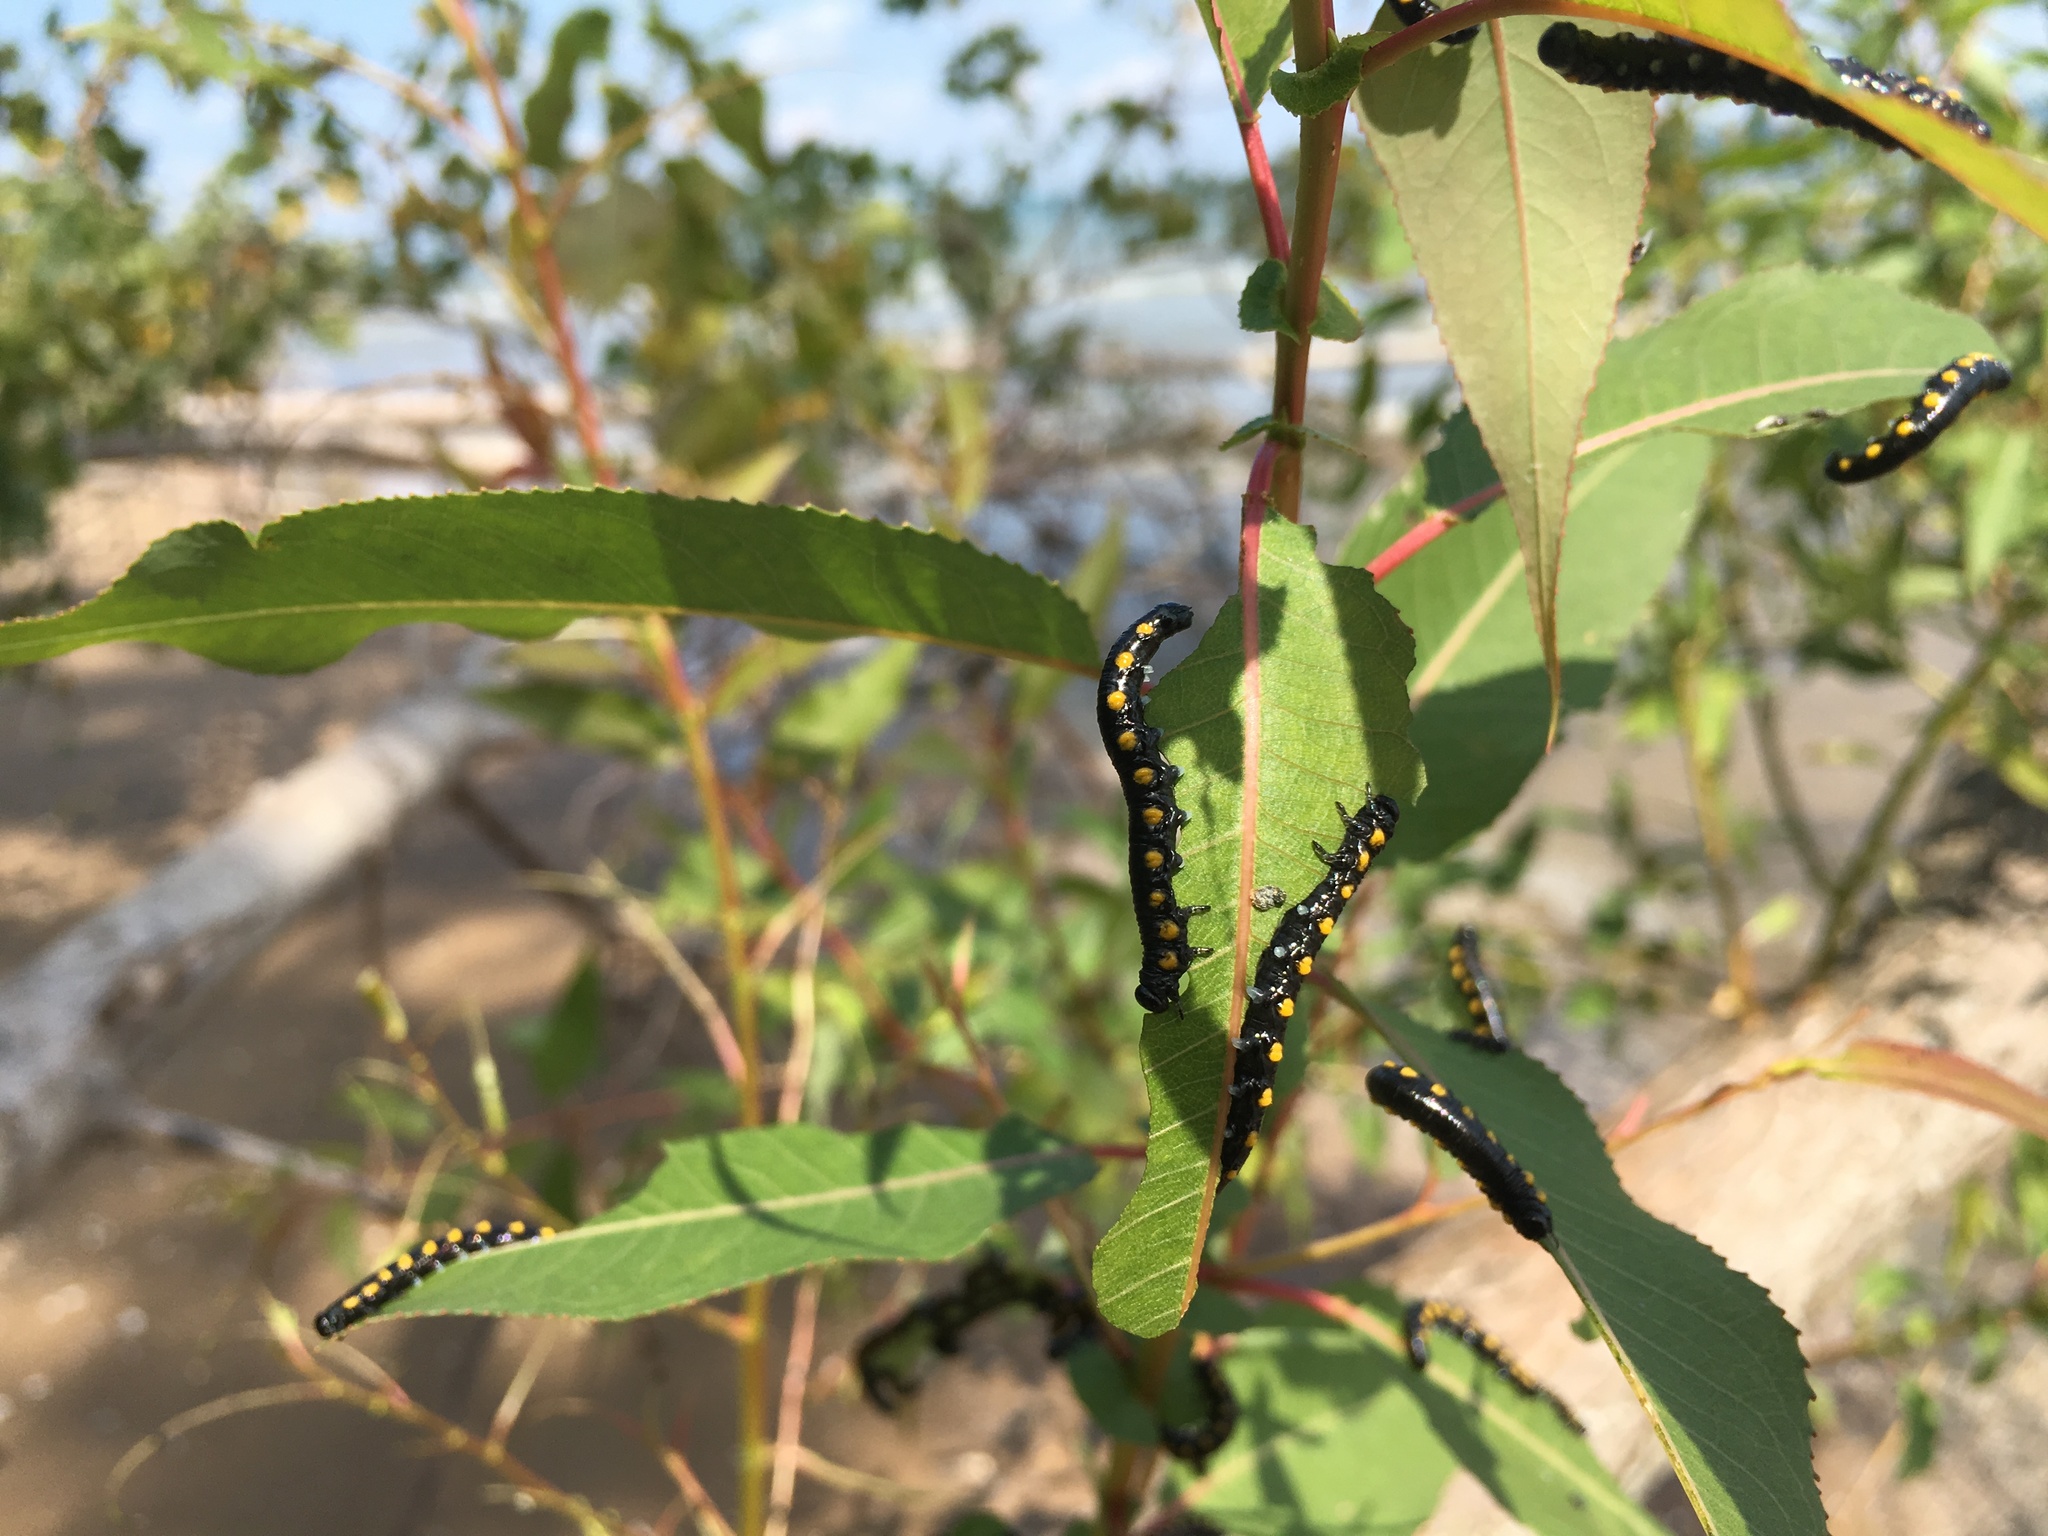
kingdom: Animalia
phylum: Arthropoda
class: Insecta
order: Hymenoptera
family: Tenthredinidae
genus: Euura
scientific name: Euura ventralis
